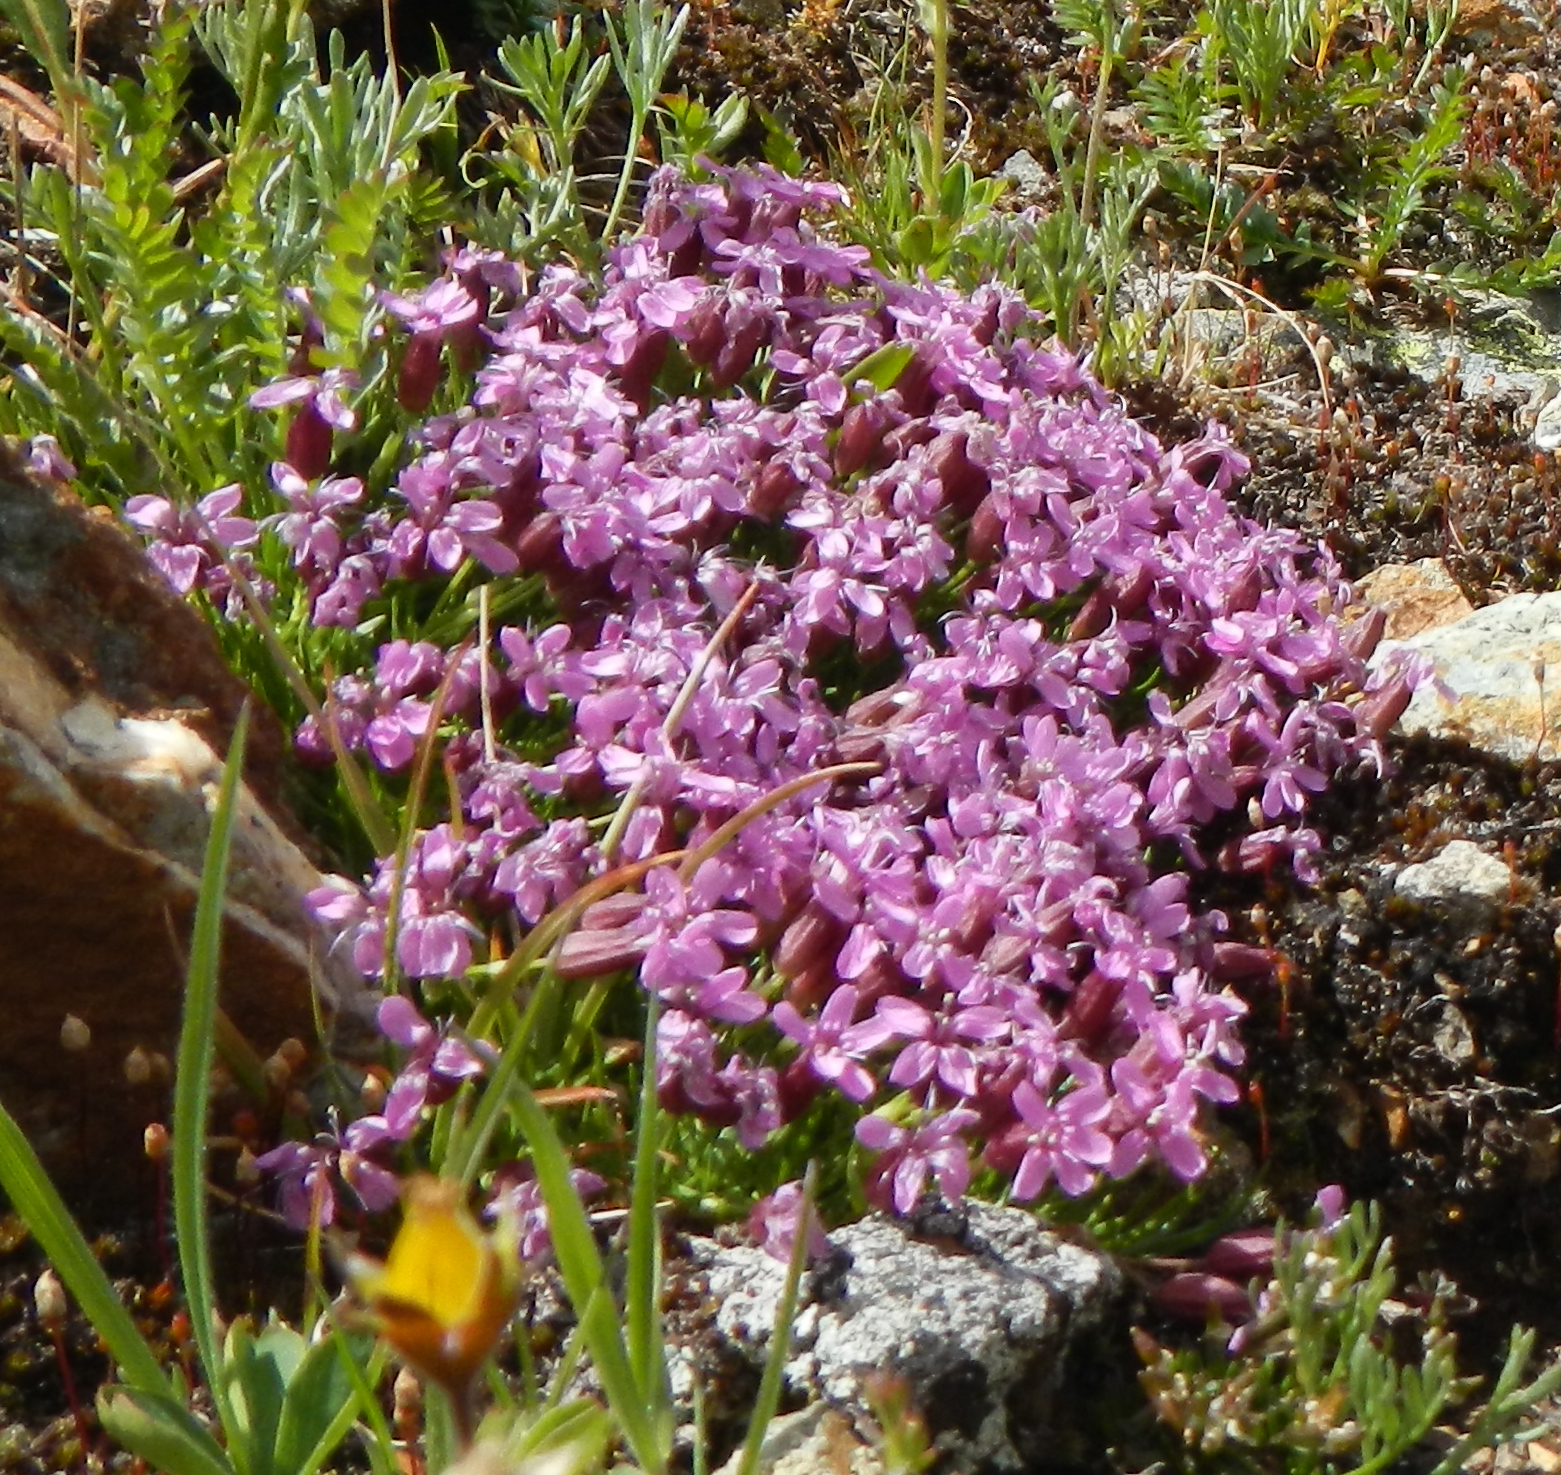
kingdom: Plantae
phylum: Tracheophyta
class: Magnoliopsida
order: Caryophyllales
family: Caryophyllaceae
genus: Silene
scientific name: Silene acaulis
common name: Moss campion
